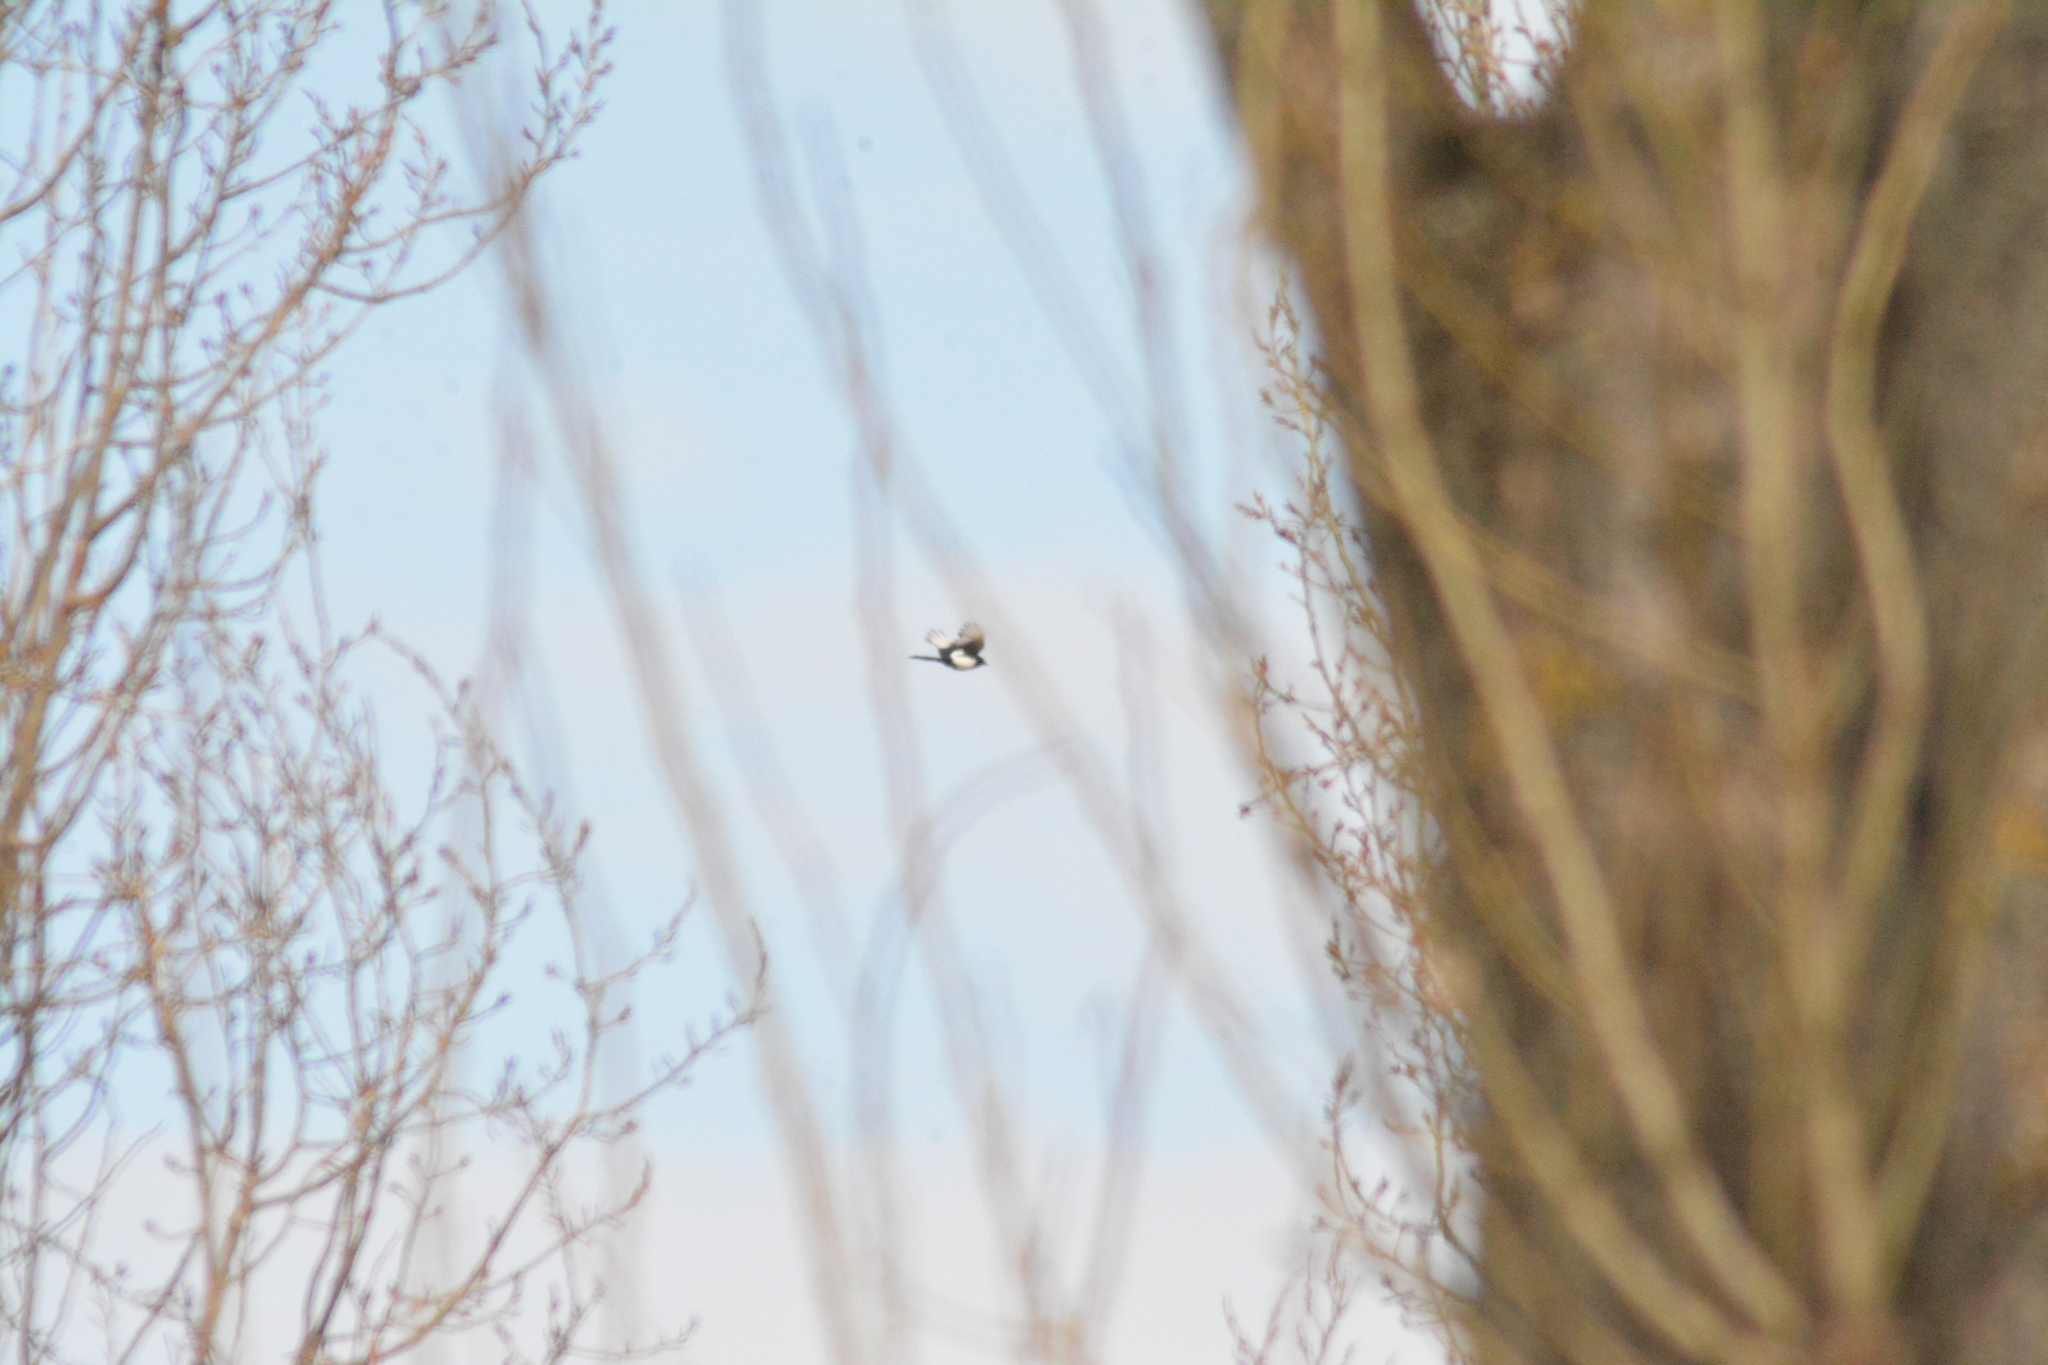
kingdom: Animalia
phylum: Chordata
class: Aves
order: Passeriformes
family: Corvidae
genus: Pica
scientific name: Pica pica
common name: Eurasian magpie
